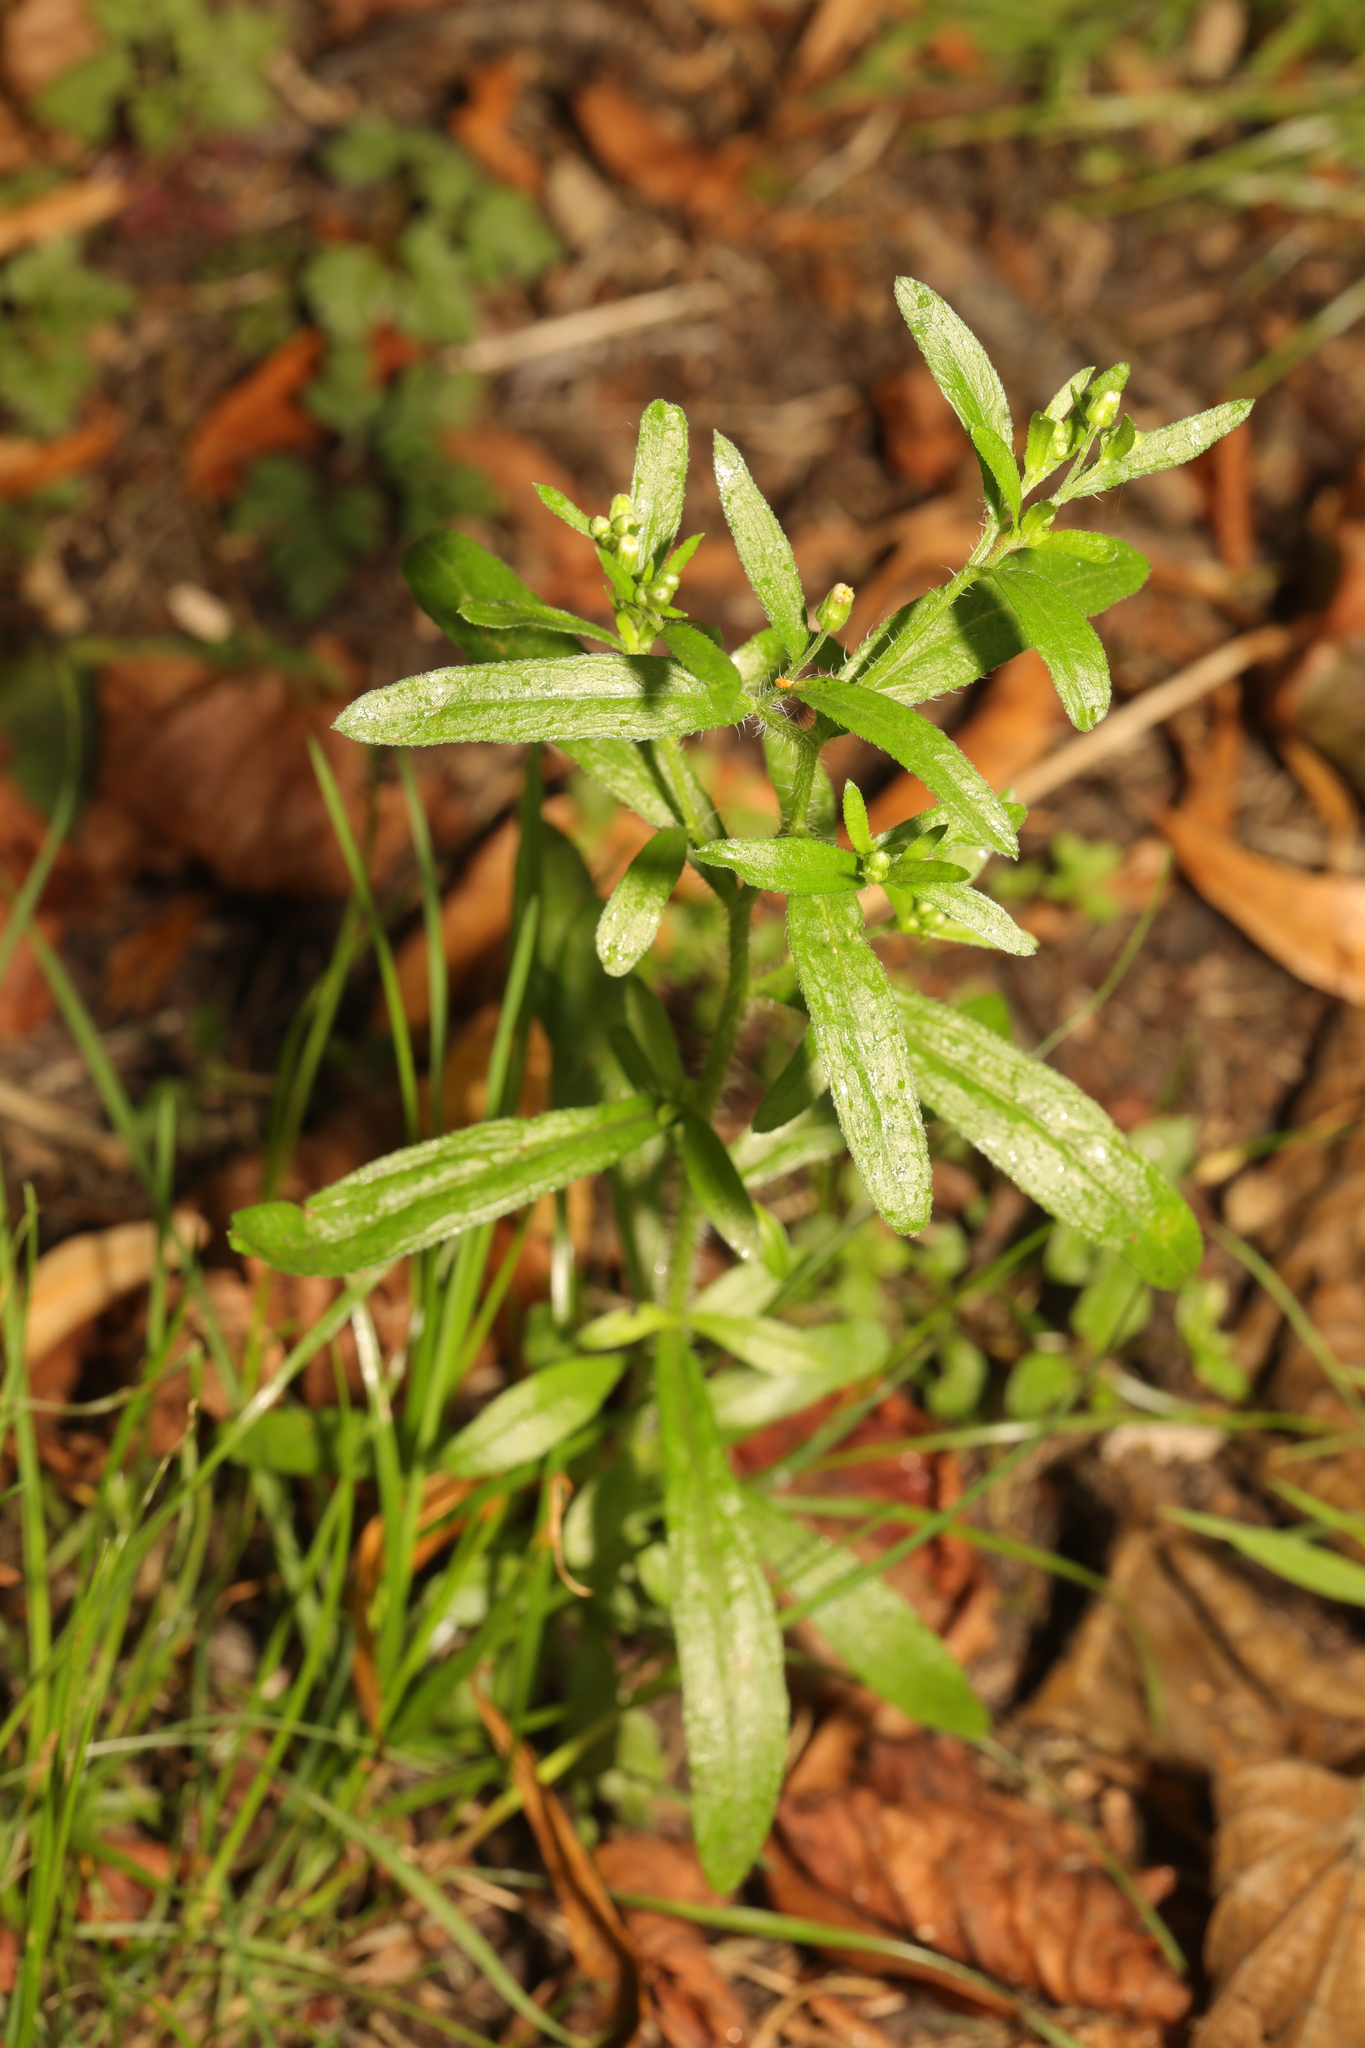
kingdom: Plantae
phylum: Tracheophyta
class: Magnoliopsida
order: Asterales
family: Asteraceae
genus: Erigeron
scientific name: Erigeron canadensis
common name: Canadian fleabane
